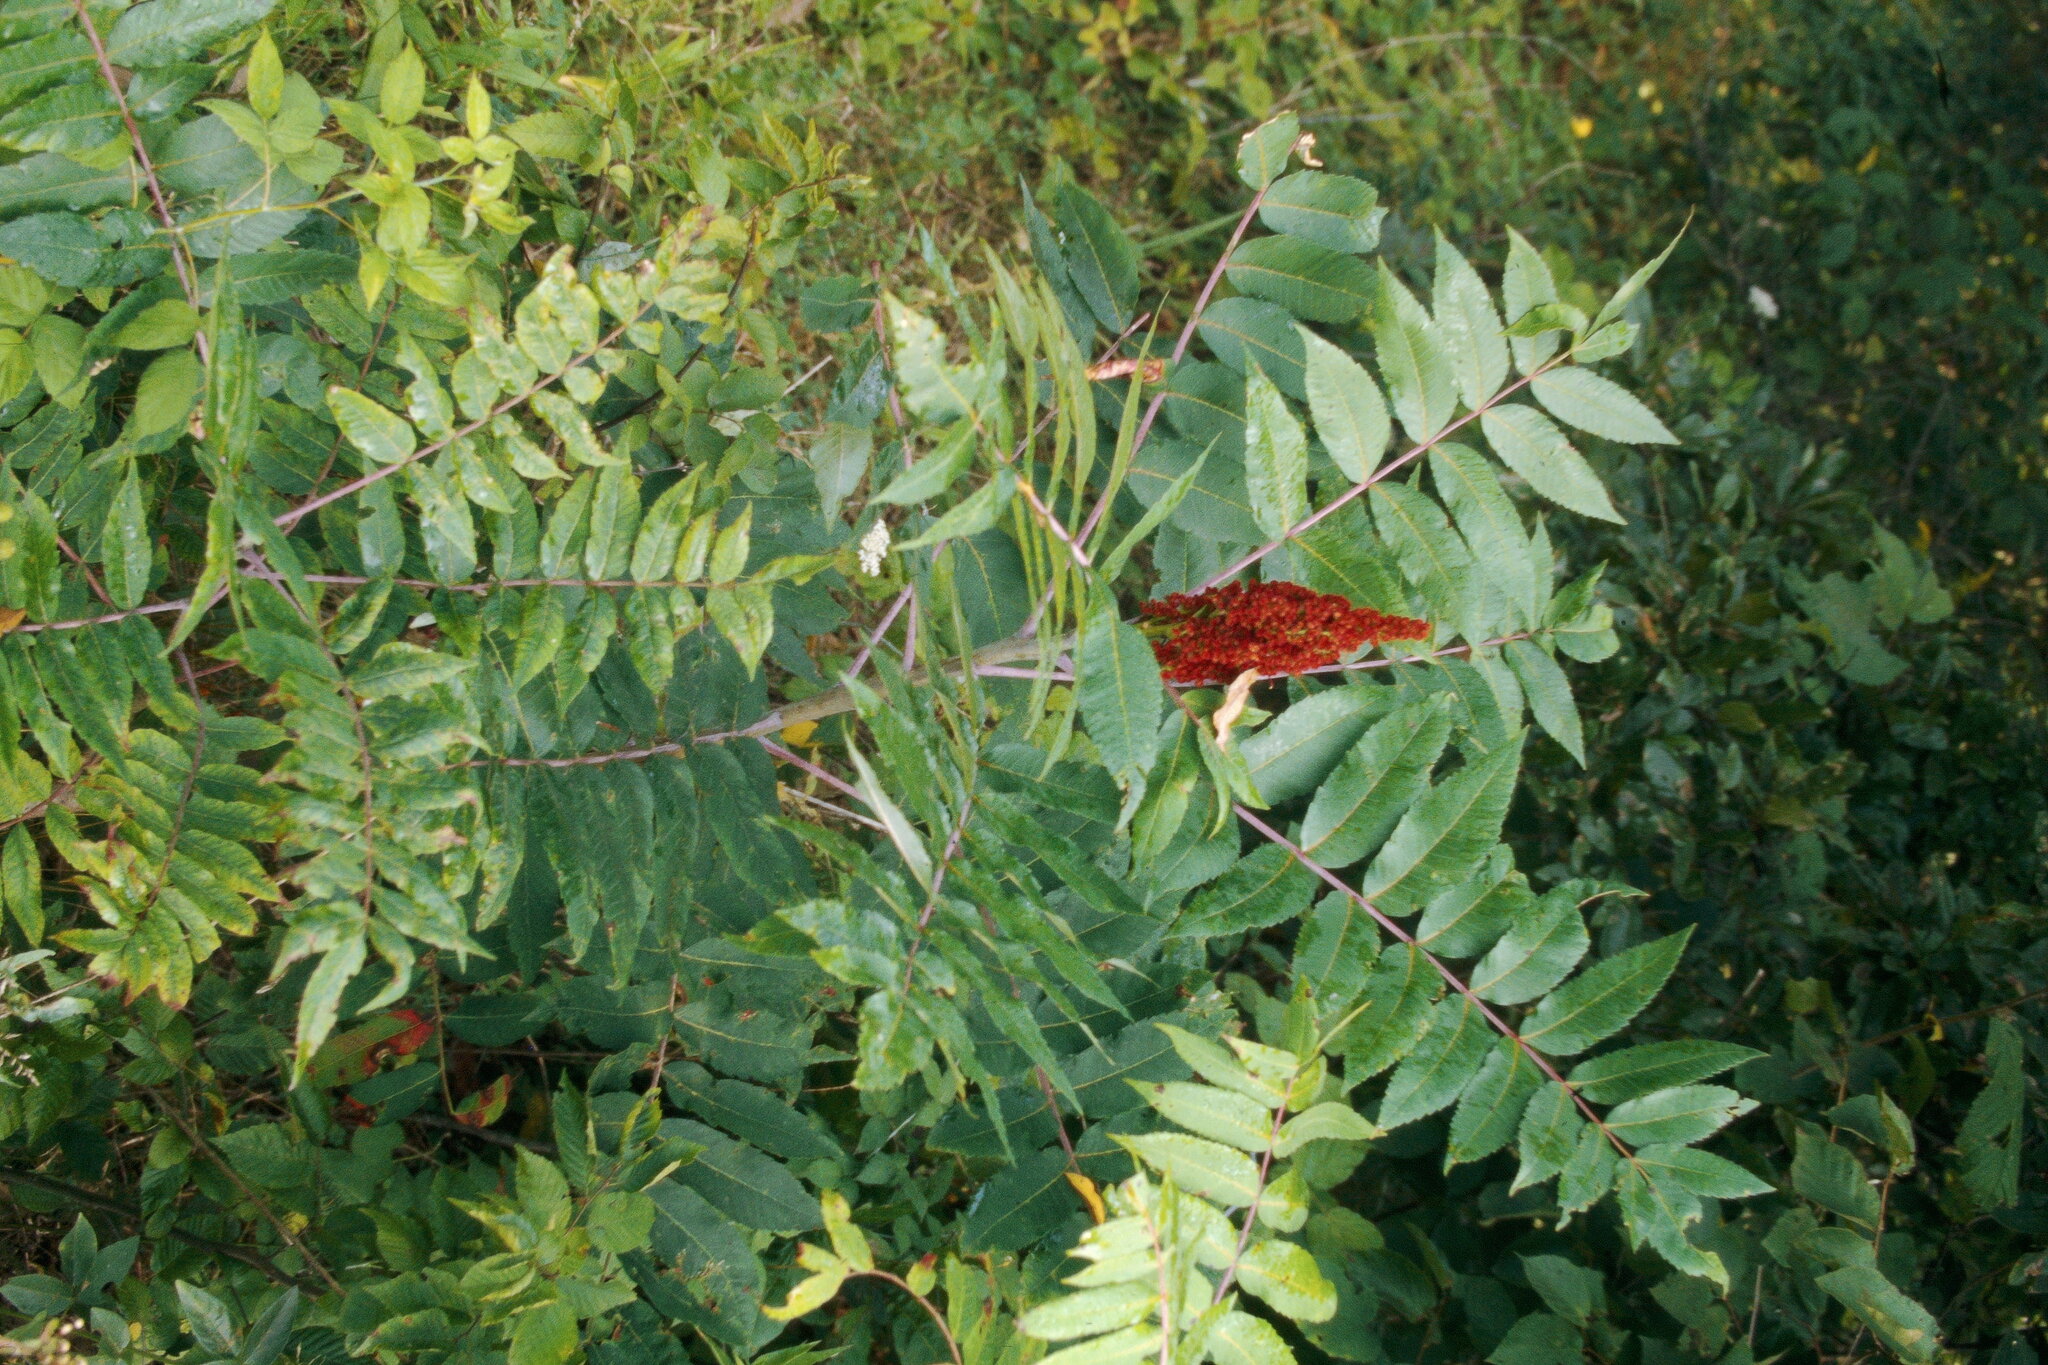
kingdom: Plantae
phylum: Tracheophyta
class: Magnoliopsida
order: Sapindales
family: Anacardiaceae
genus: Rhus
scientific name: Rhus glabra
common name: Scarlet sumac
